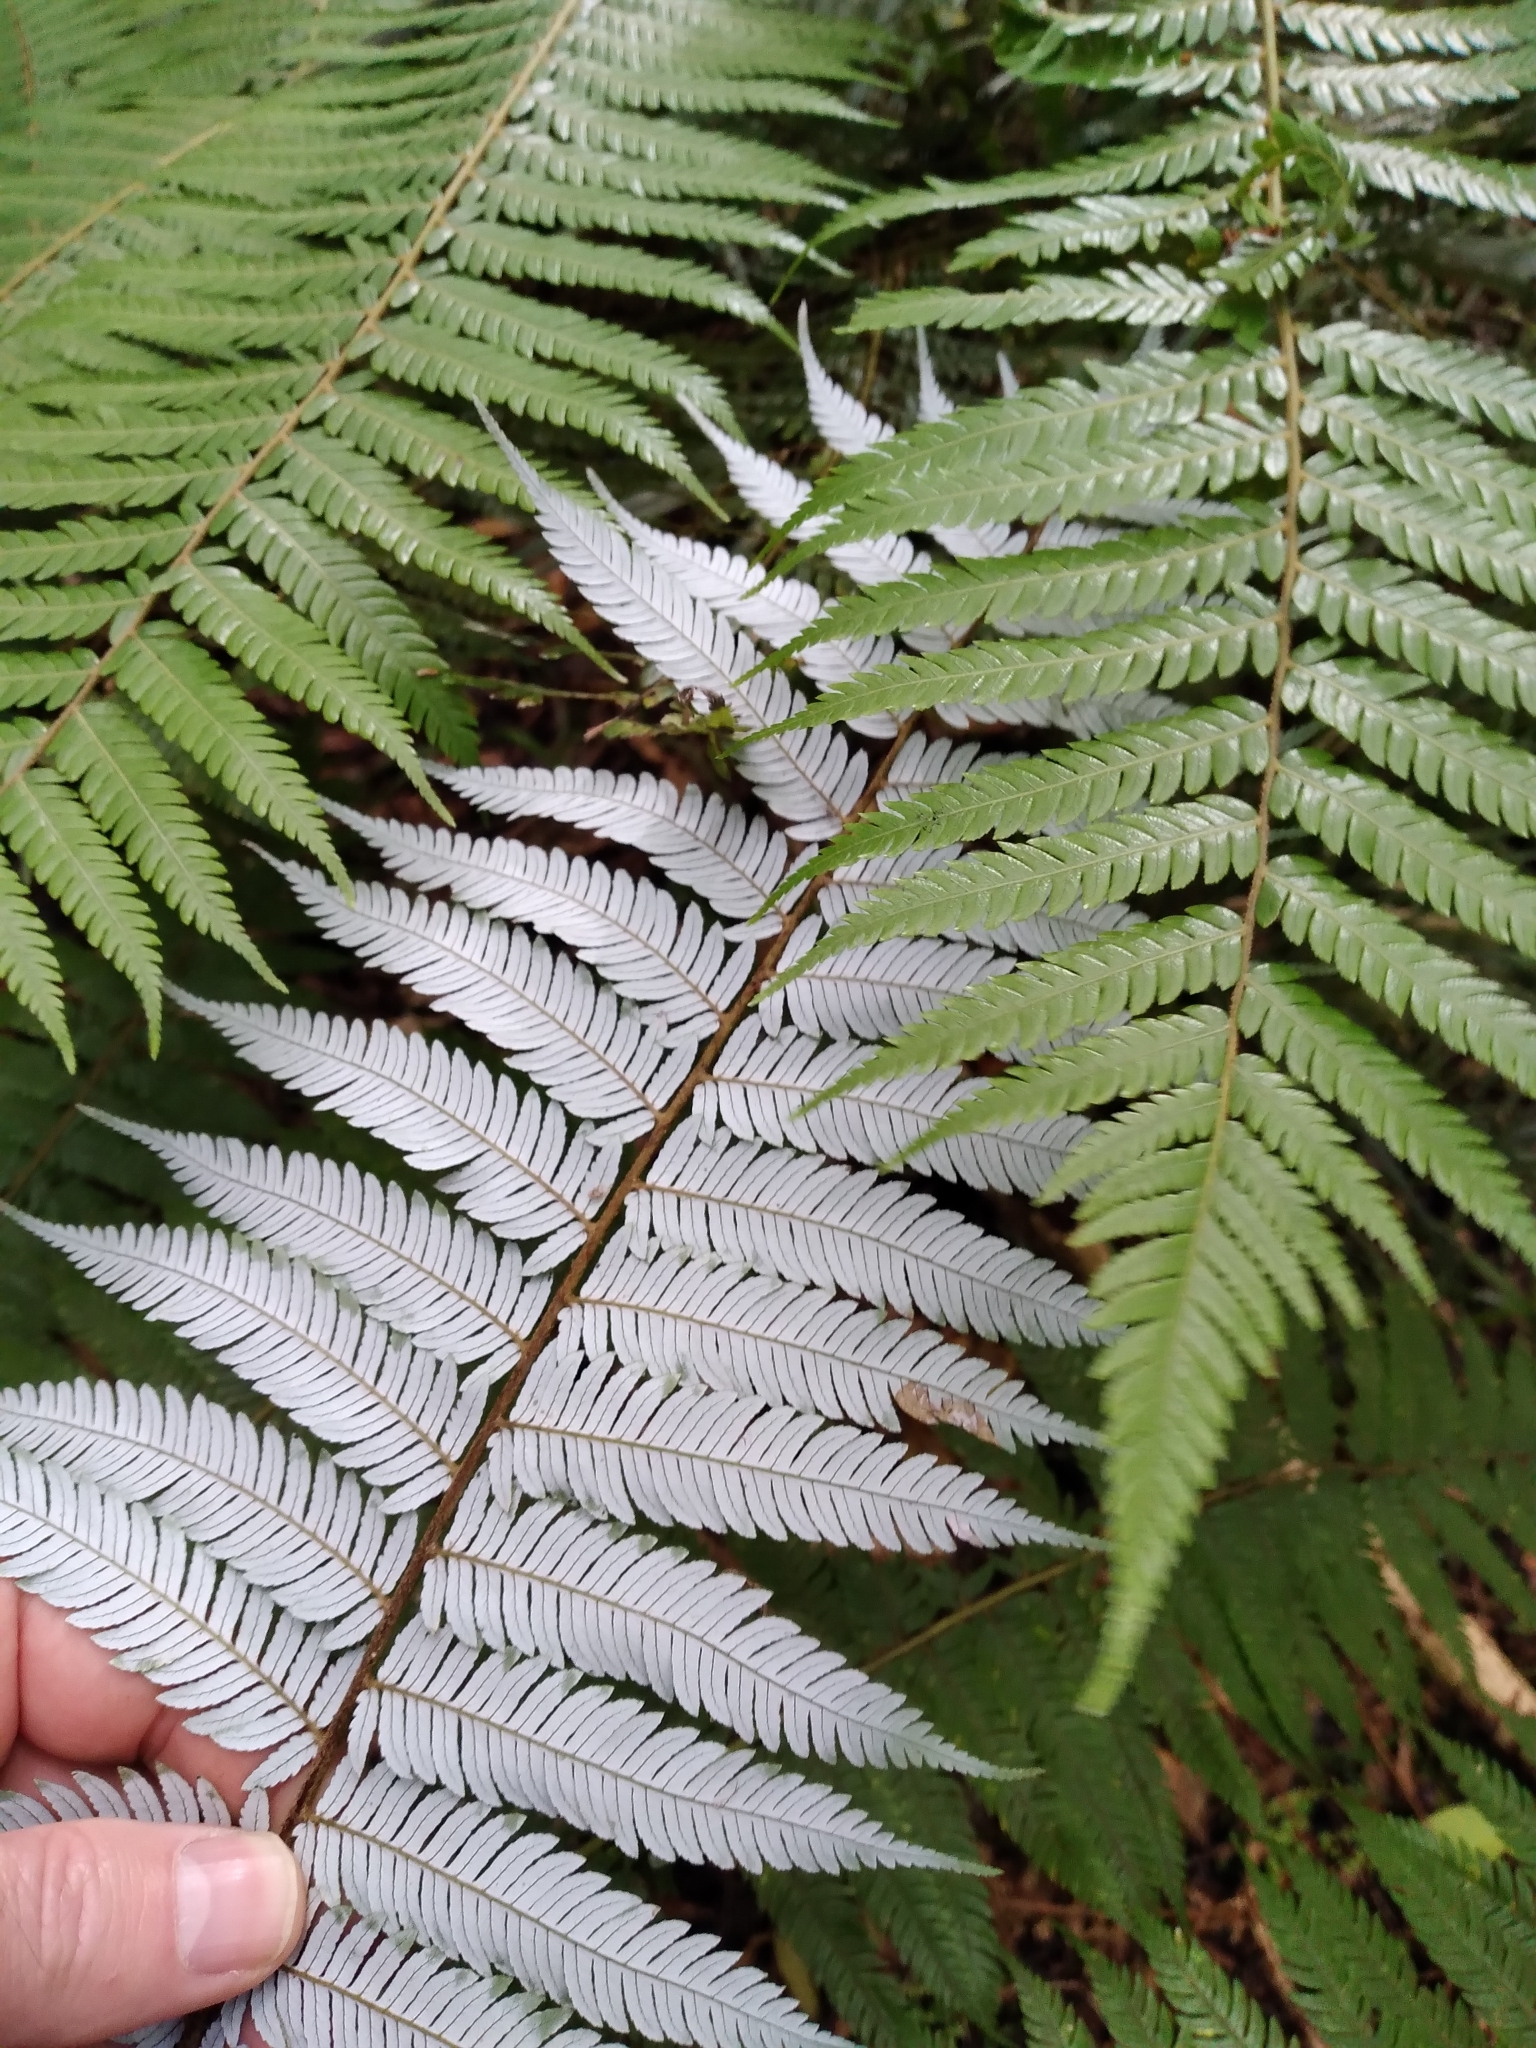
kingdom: Plantae
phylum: Tracheophyta
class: Polypodiopsida
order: Cyatheales
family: Cyatheaceae
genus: Alsophila
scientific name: Alsophila dealbata
